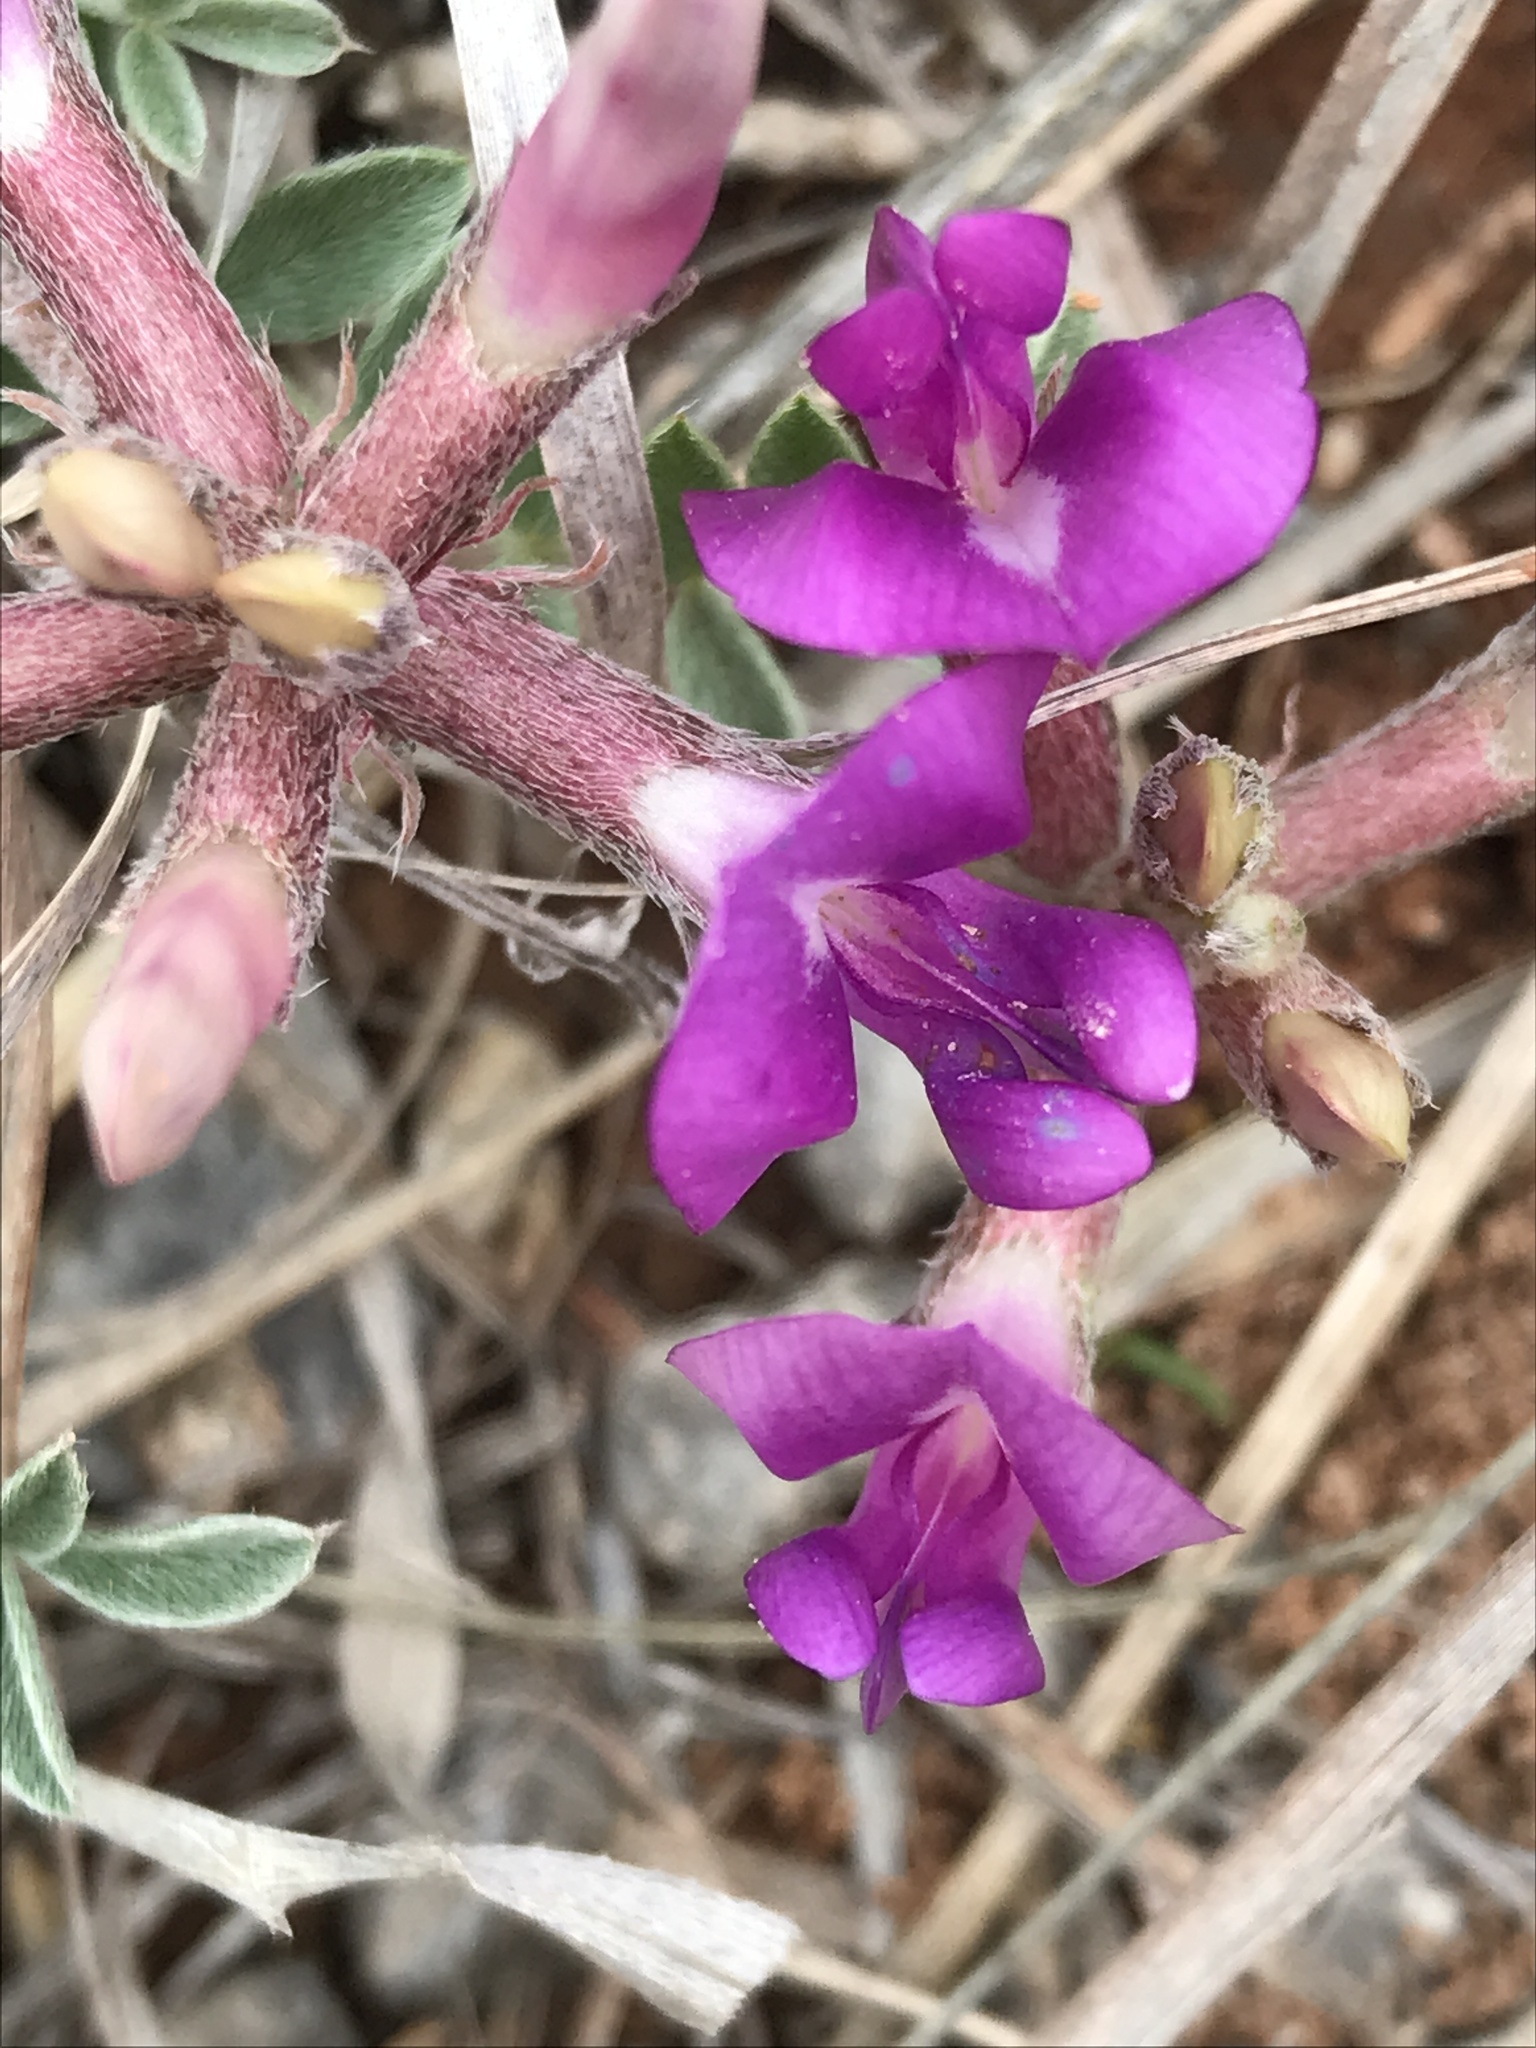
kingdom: Plantae
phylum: Tracheophyta
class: Magnoliopsida
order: Fabales
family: Fabaceae
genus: Astragalus
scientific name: Astragalus missouriensis
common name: Missouri milk-vetch
